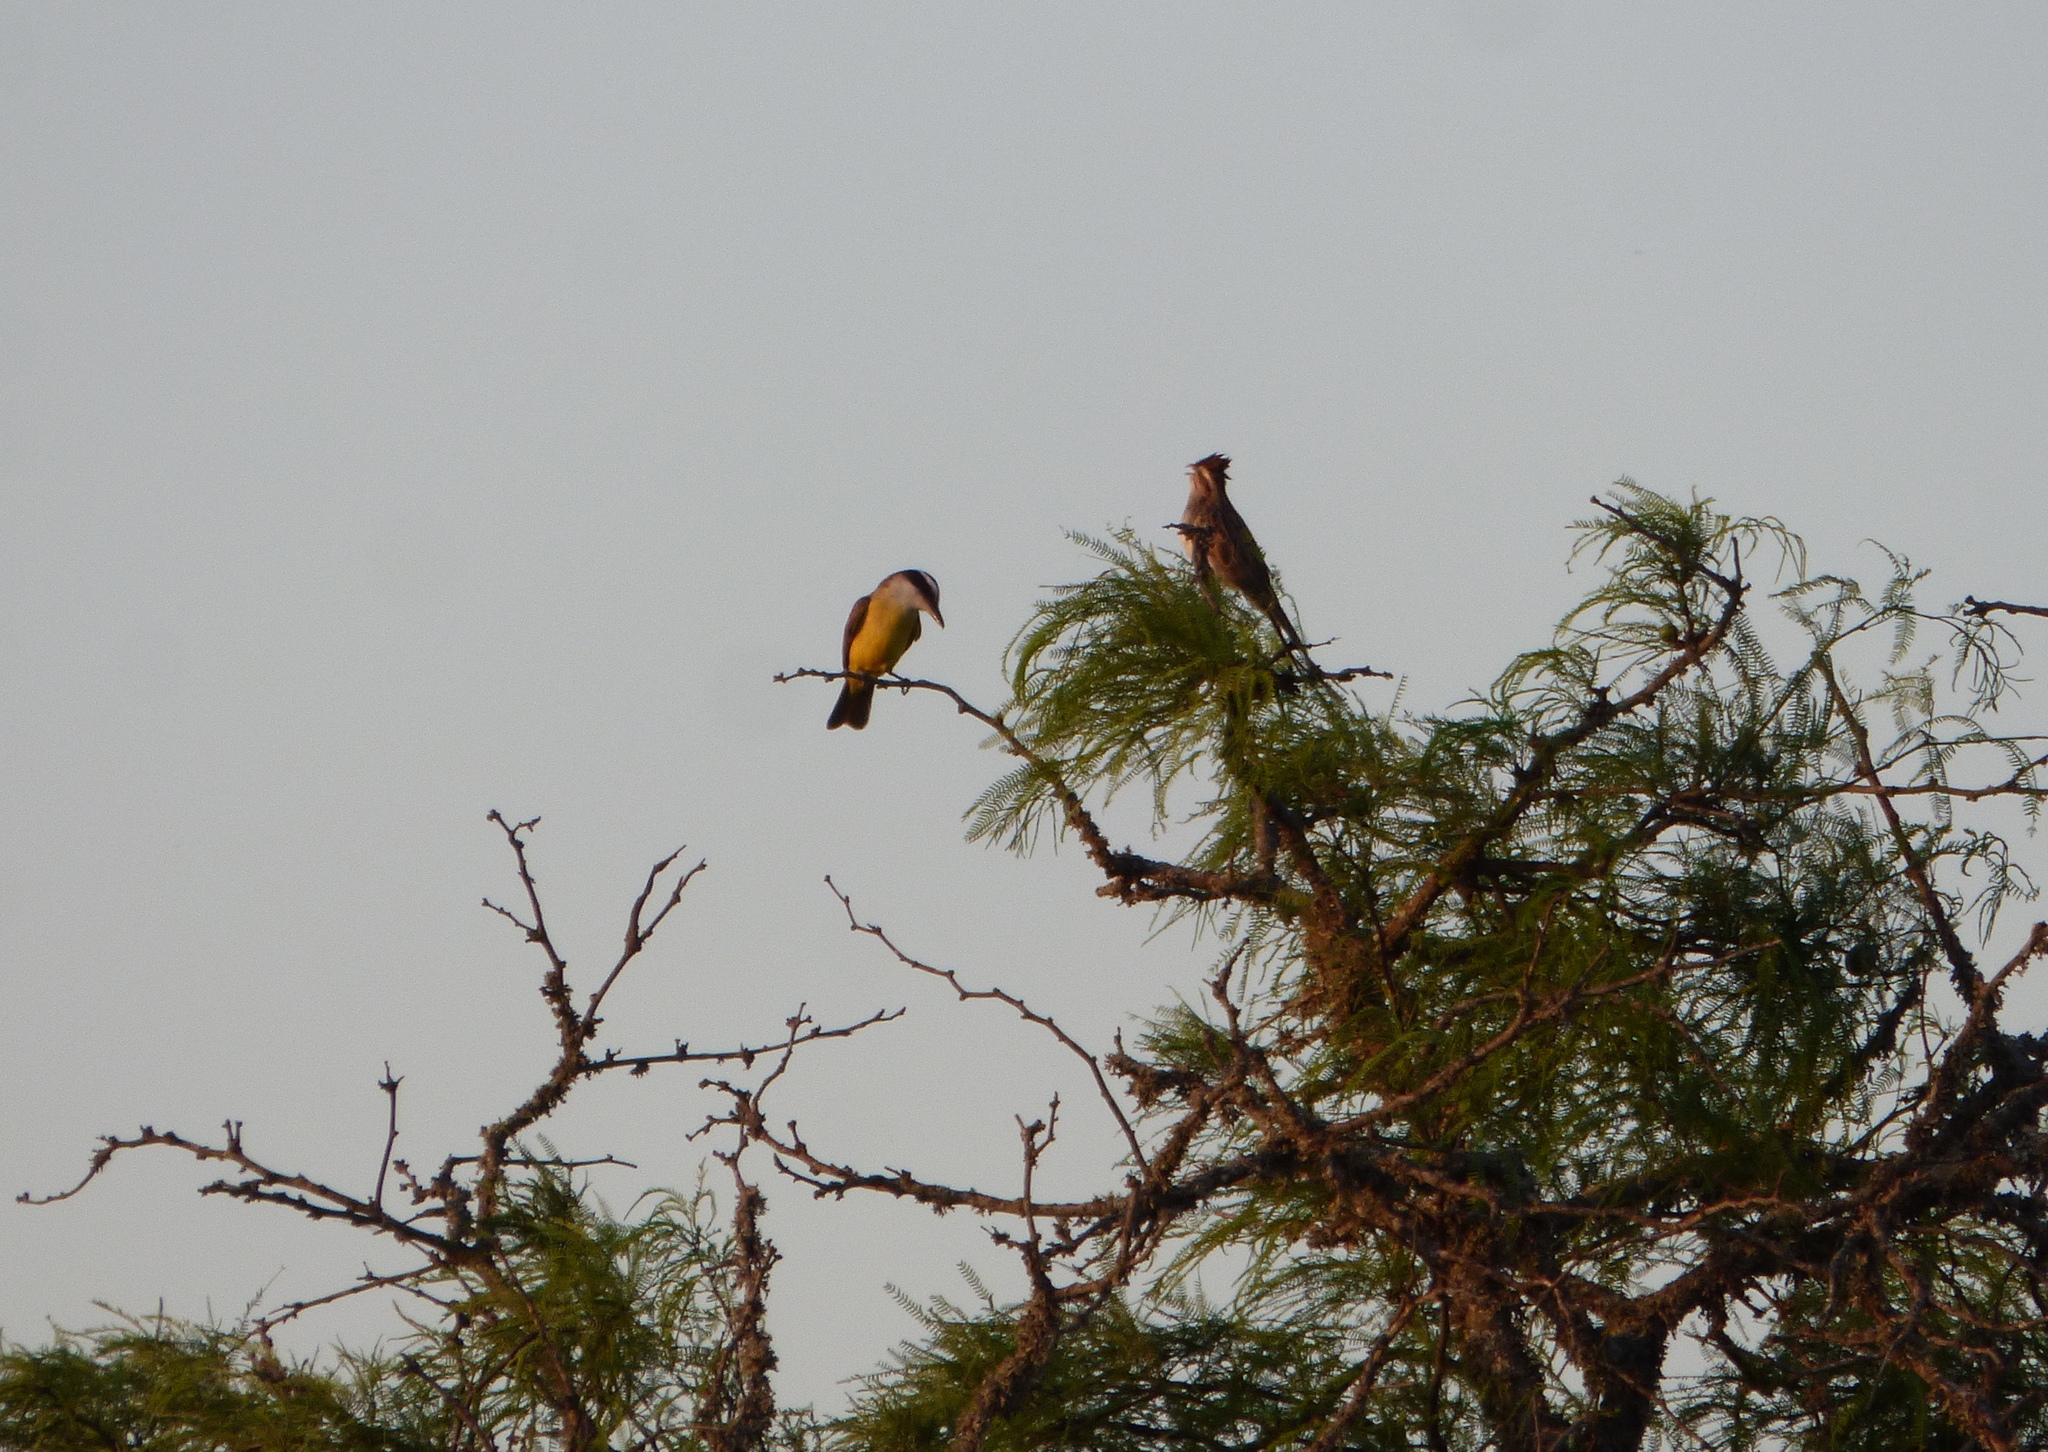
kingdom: Animalia
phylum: Chordata
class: Aves
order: Passeriformes
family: Tyrannidae
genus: Pitangus
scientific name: Pitangus sulphuratus
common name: Great kiskadee
